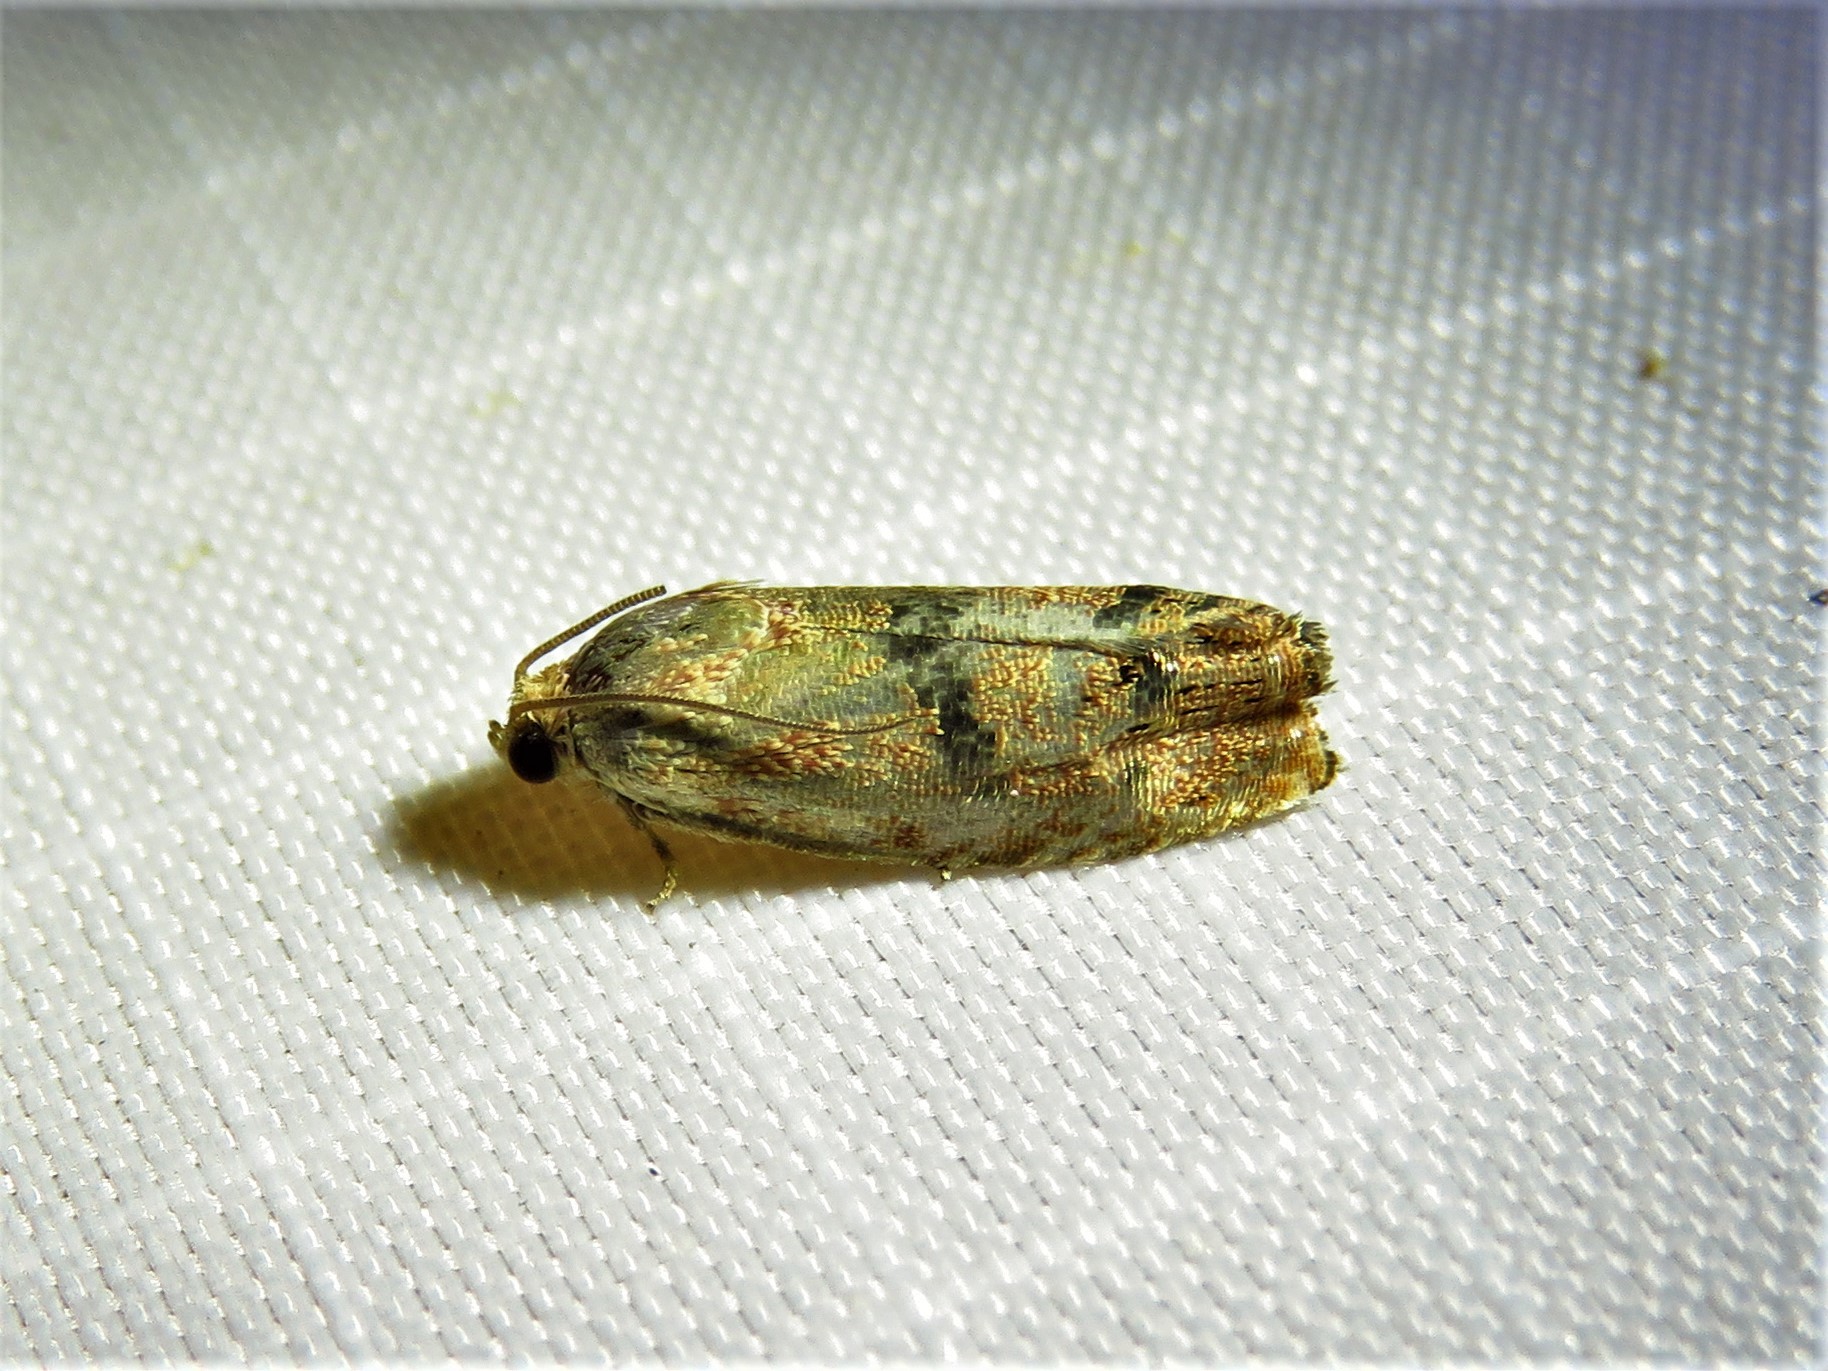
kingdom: Animalia
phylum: Arthropoda
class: Insecta
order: Lepidoptera
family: Tortricidae
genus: Cydia
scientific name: Cydia latiferreana
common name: Filbertworm moth
